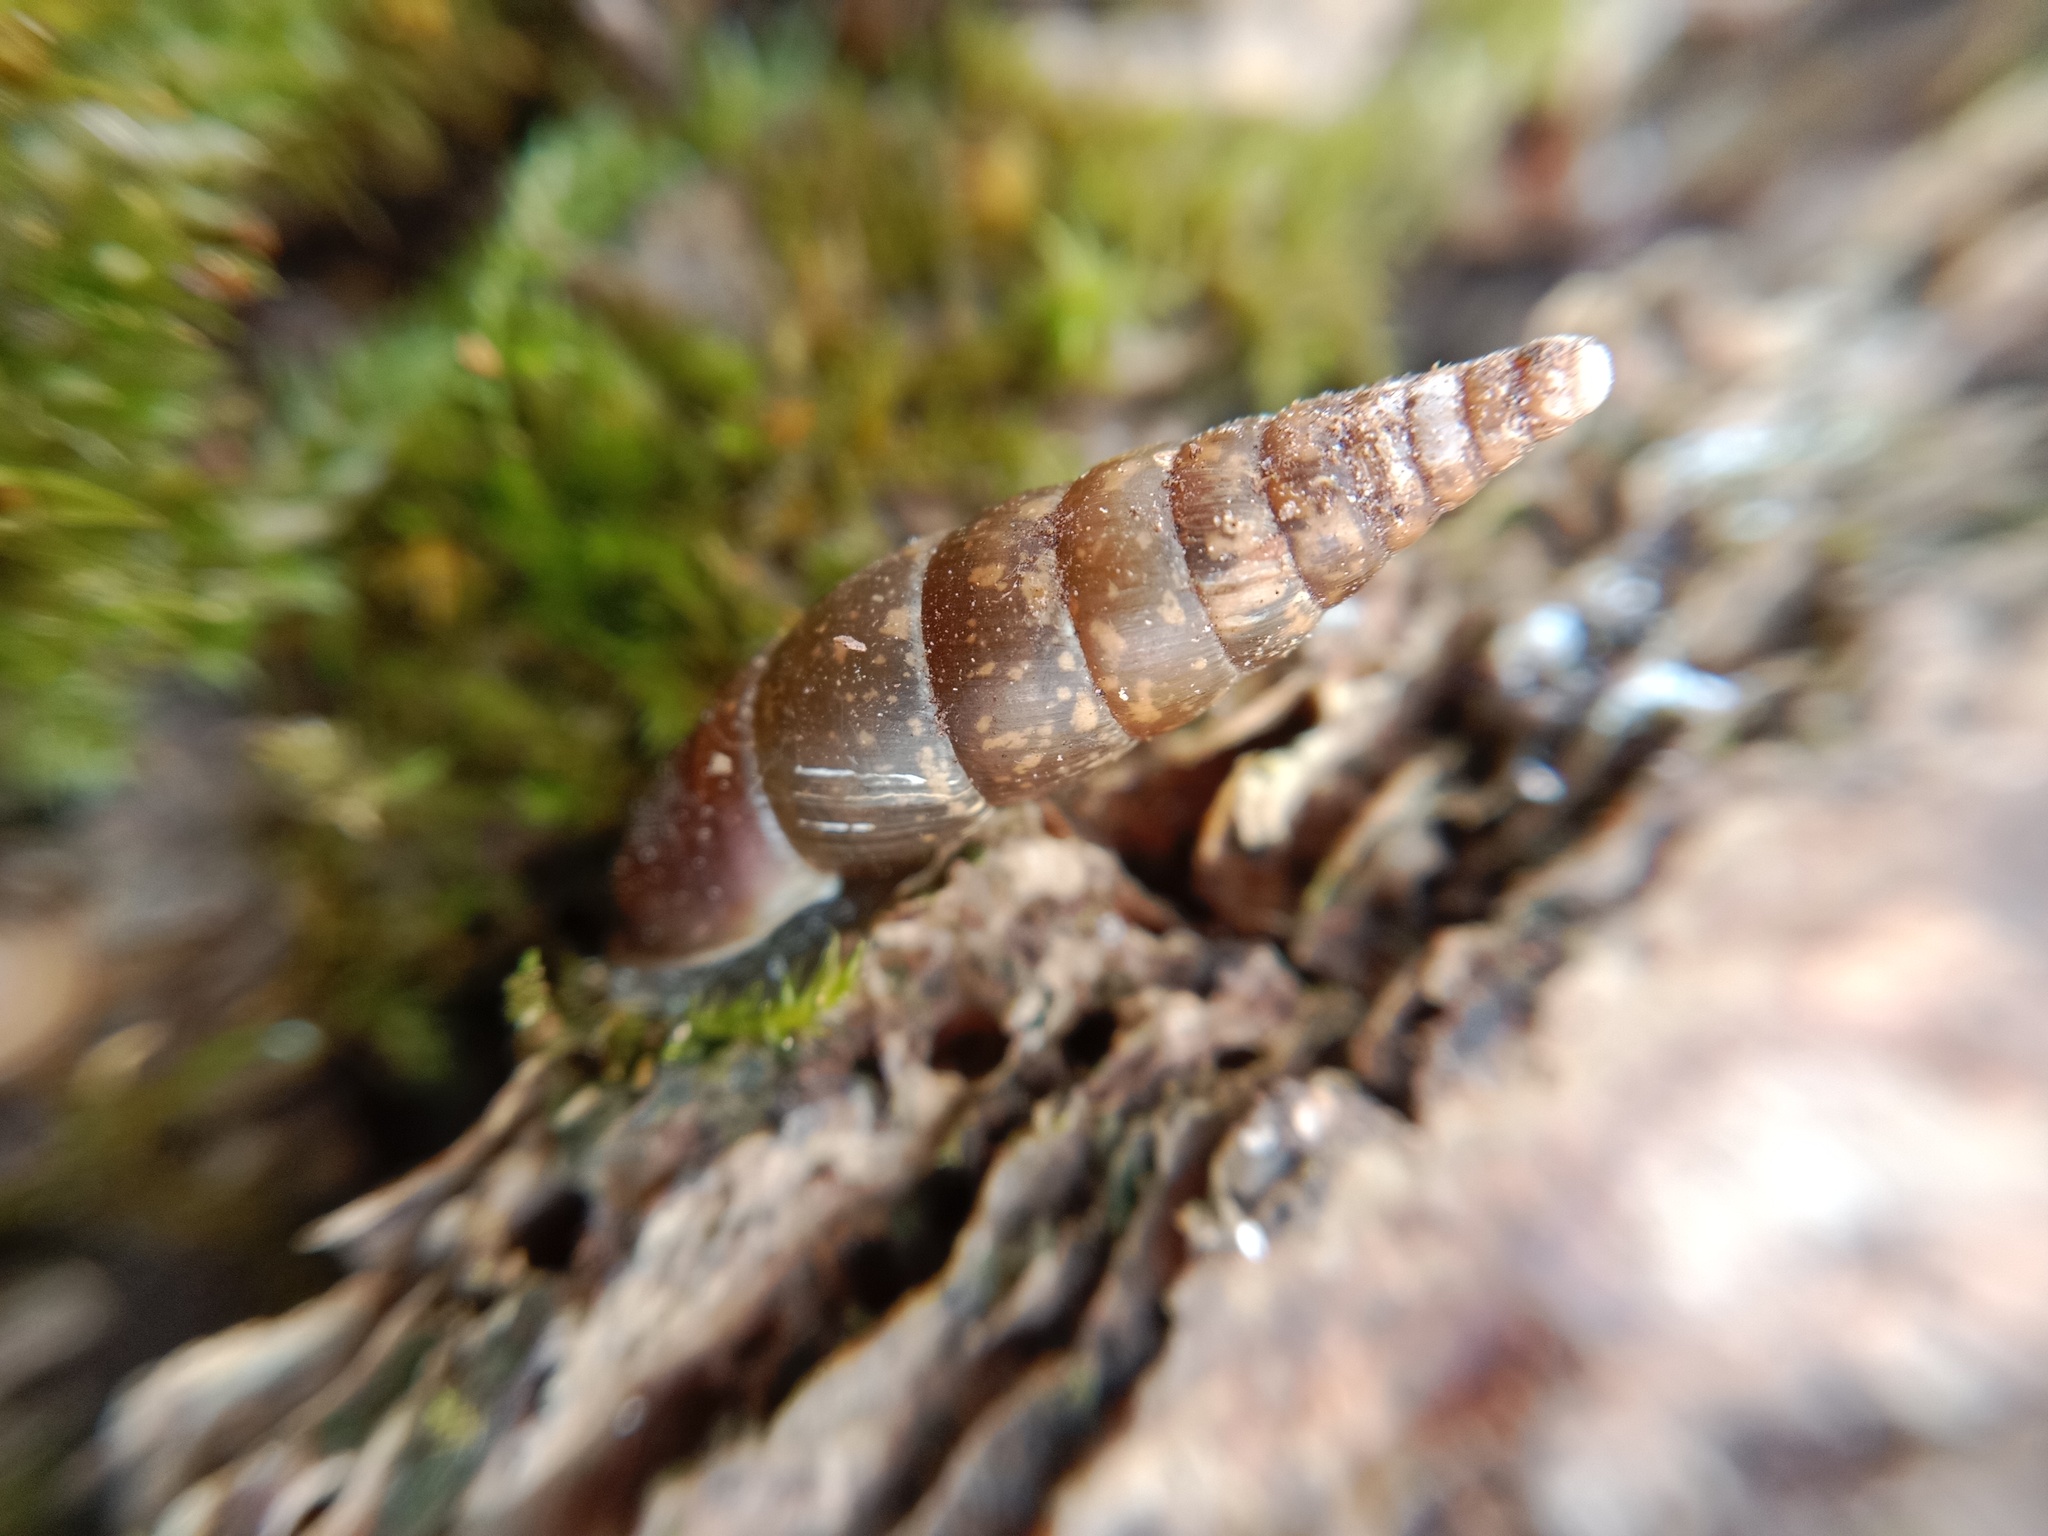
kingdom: Animalia
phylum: Mollusca
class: Gastropoda
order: Stylommatophora
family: Clausiliidae
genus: Cochlodina
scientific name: Cochlodina laminata
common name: Plaited door snail
